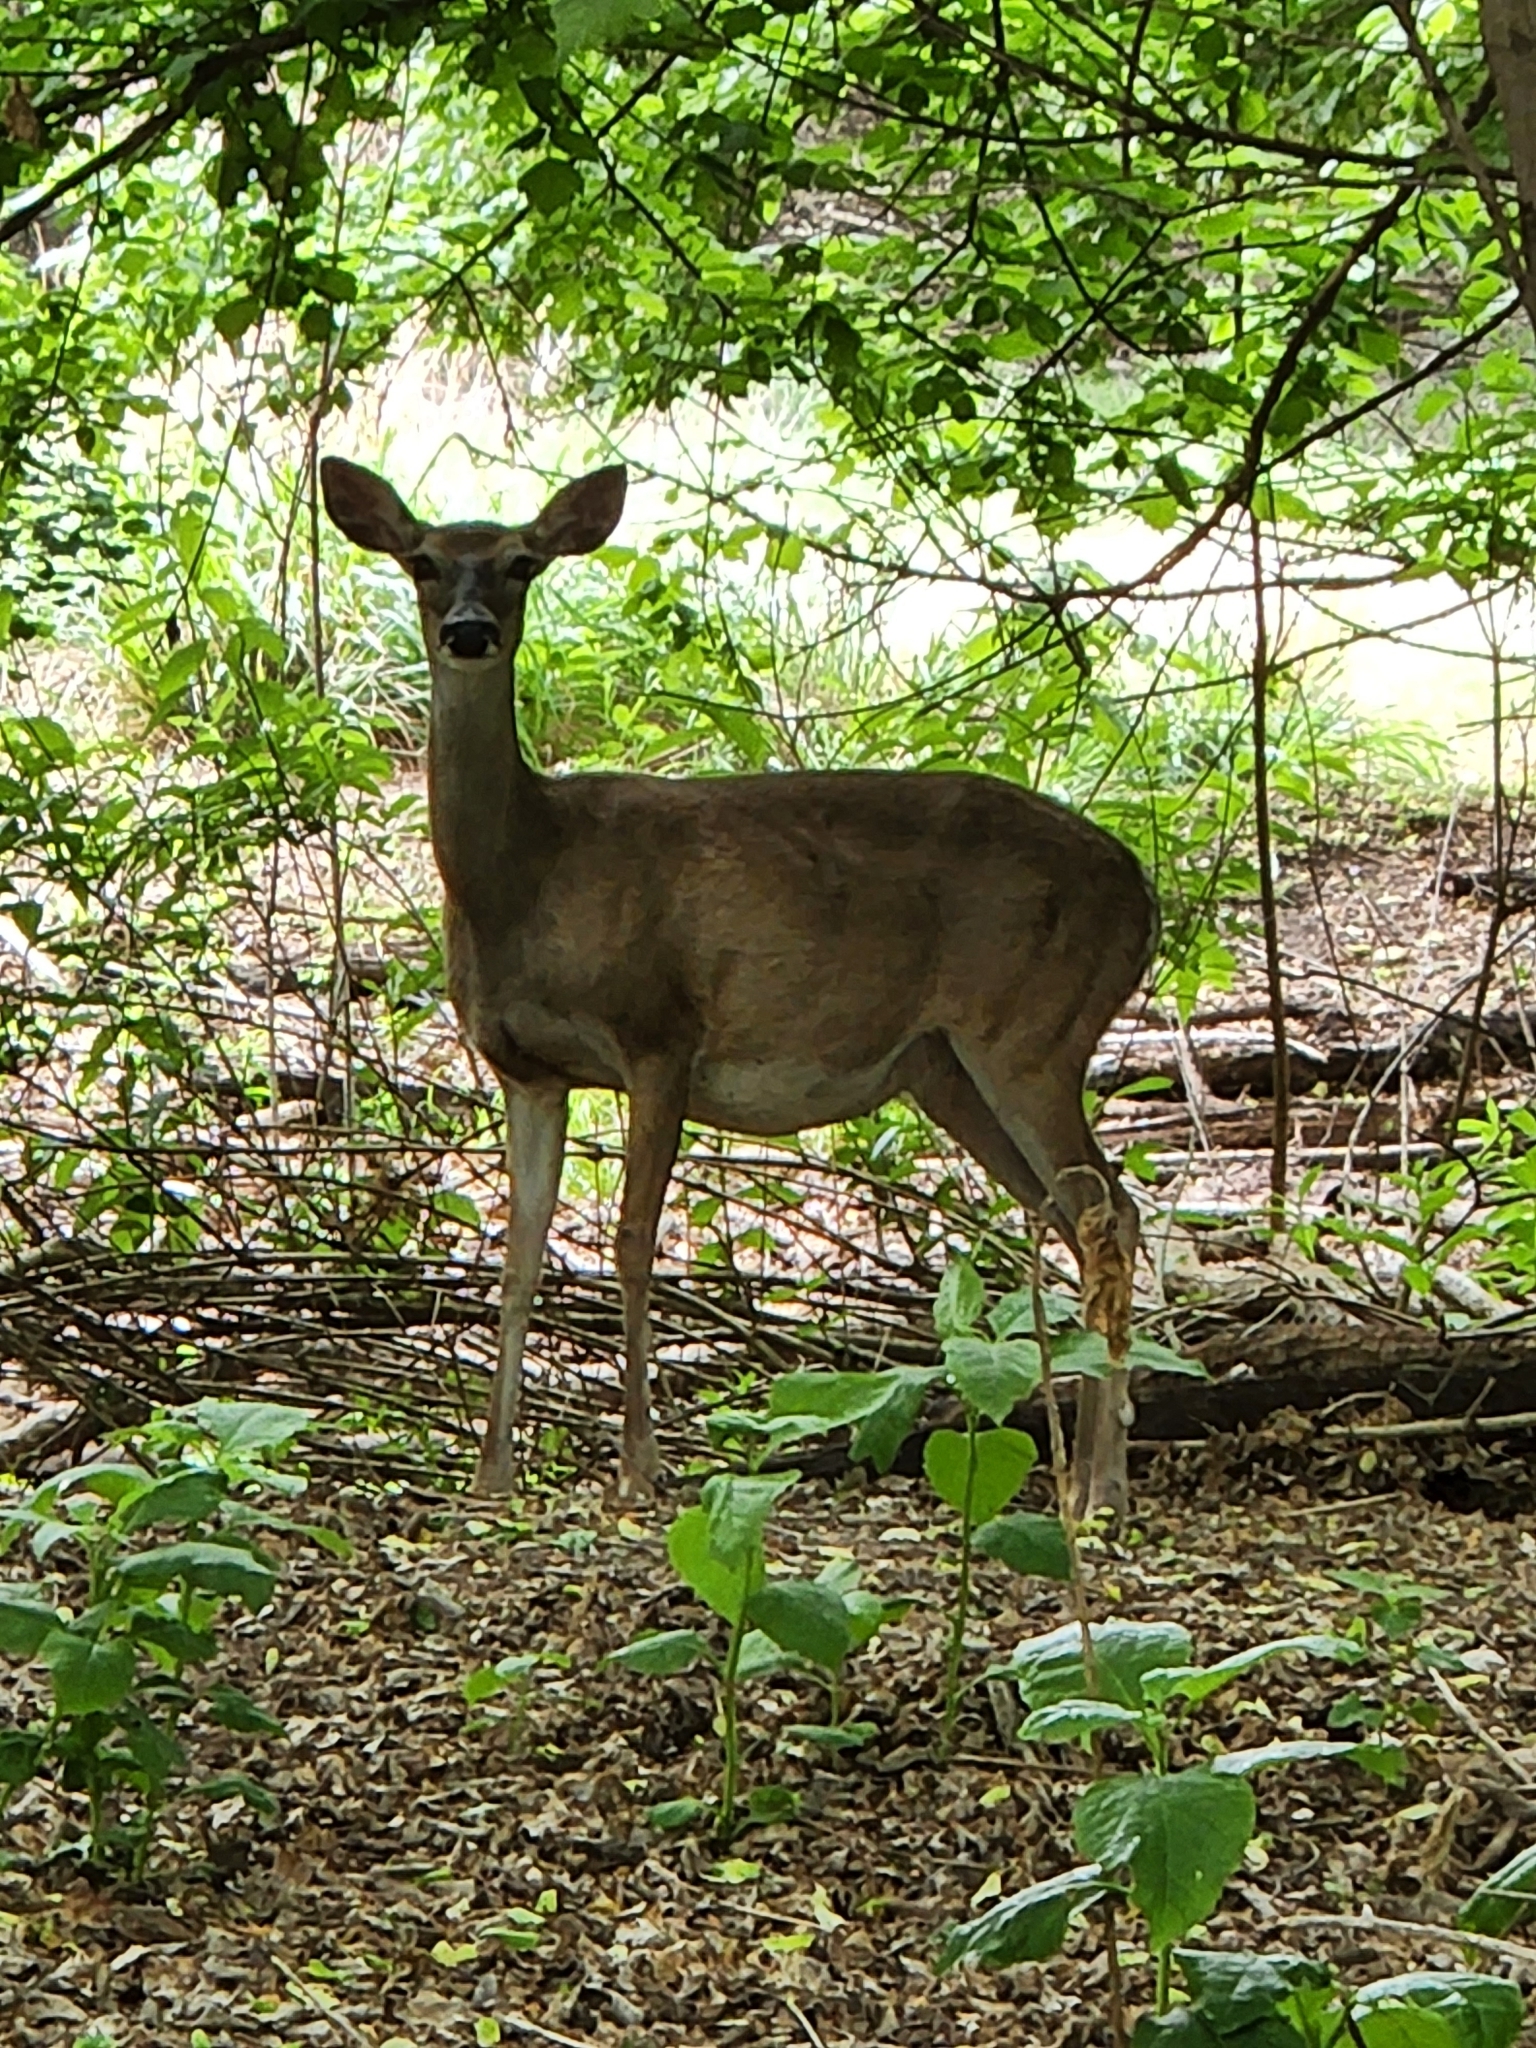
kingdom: Animalia
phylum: Chordata
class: Mammalia
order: Artiodactyla
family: Cervidae
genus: Odocoileus
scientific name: Odocoileus virginianus
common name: White-tailed deer
